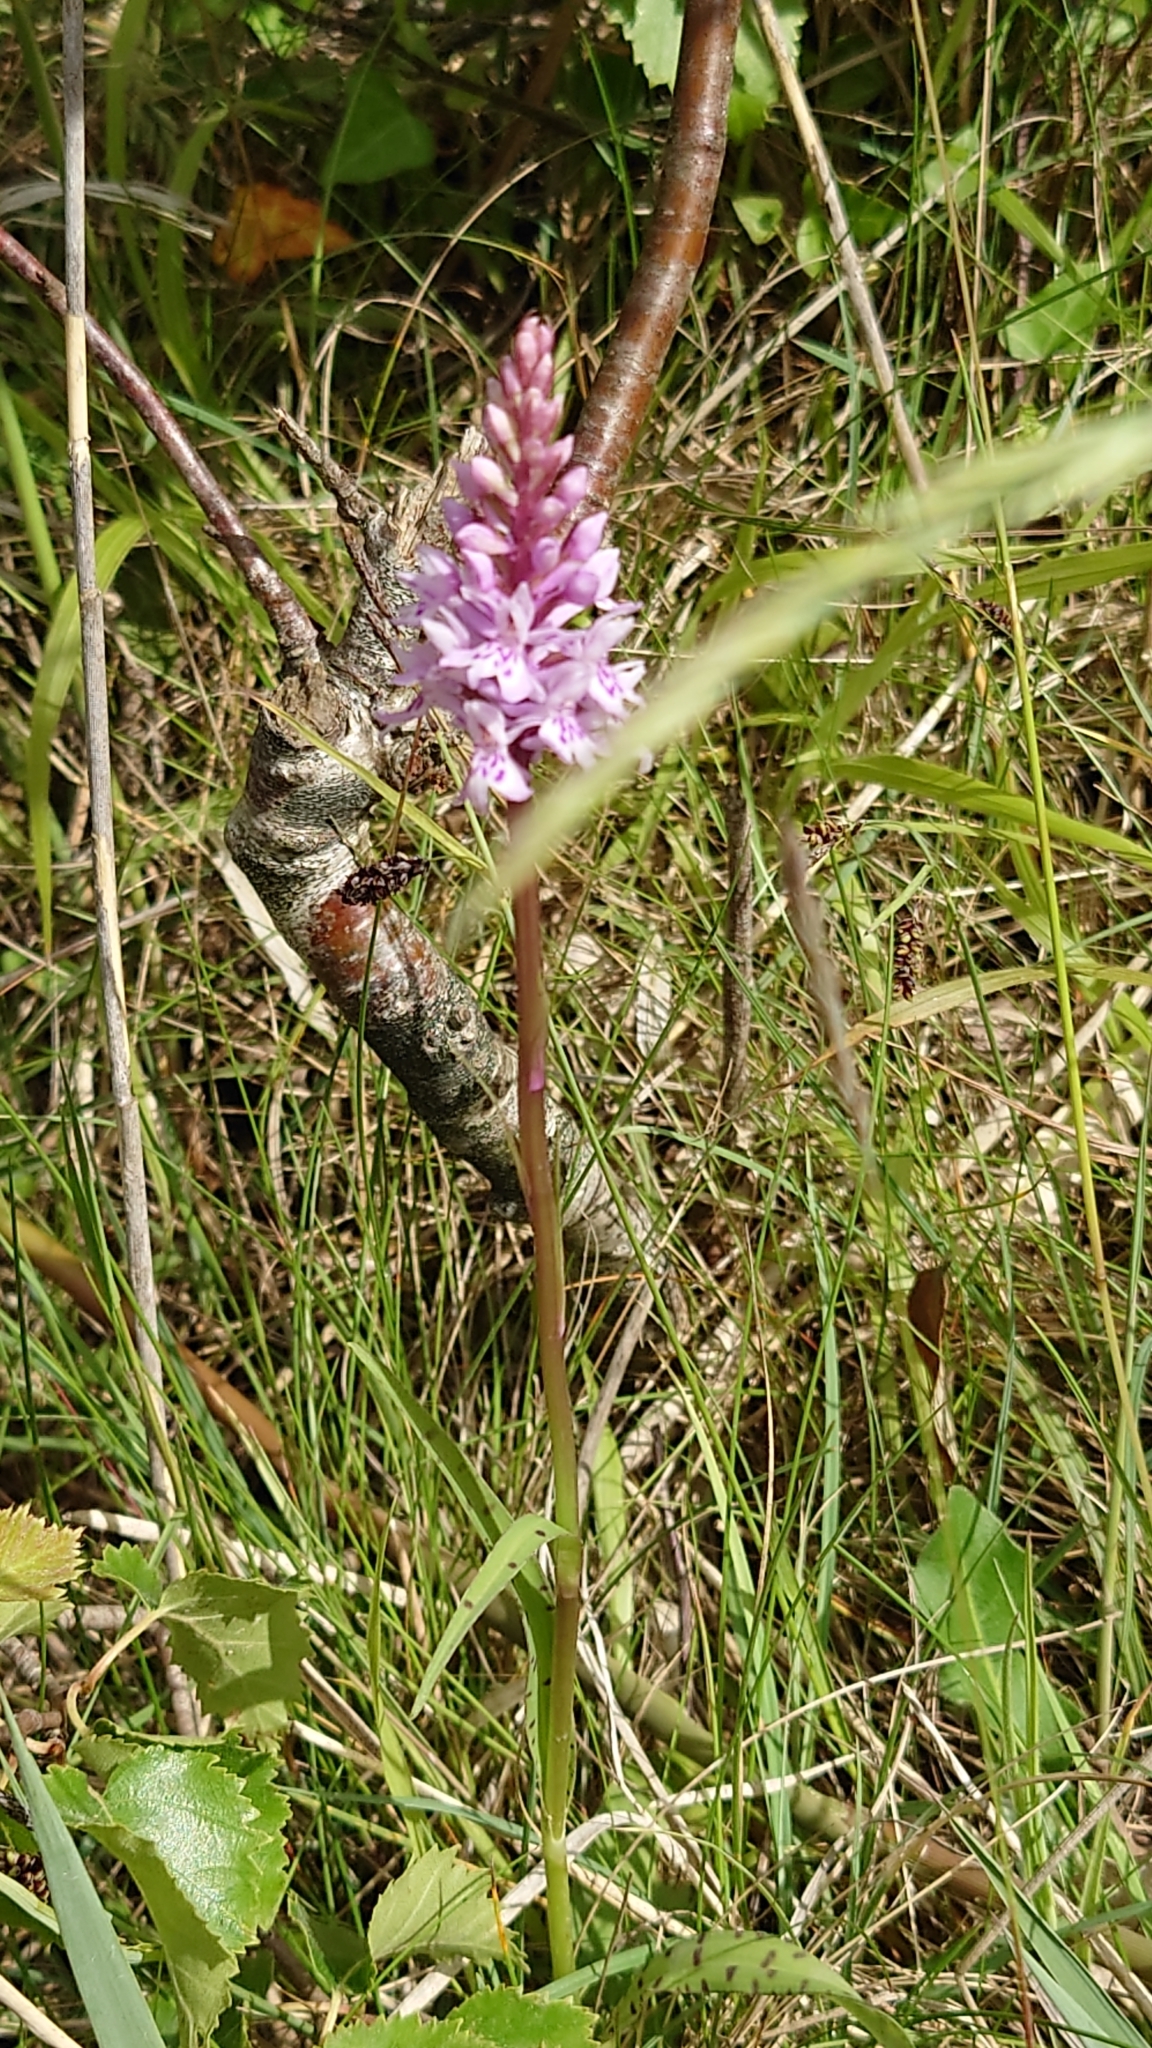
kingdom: Plantae
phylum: Tracheophyta
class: Liliopsida
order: Asparagales
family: Orchidaceae
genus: Dactylorhiza
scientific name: Dactylorhiza maculata
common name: Heath spotted-orchid
